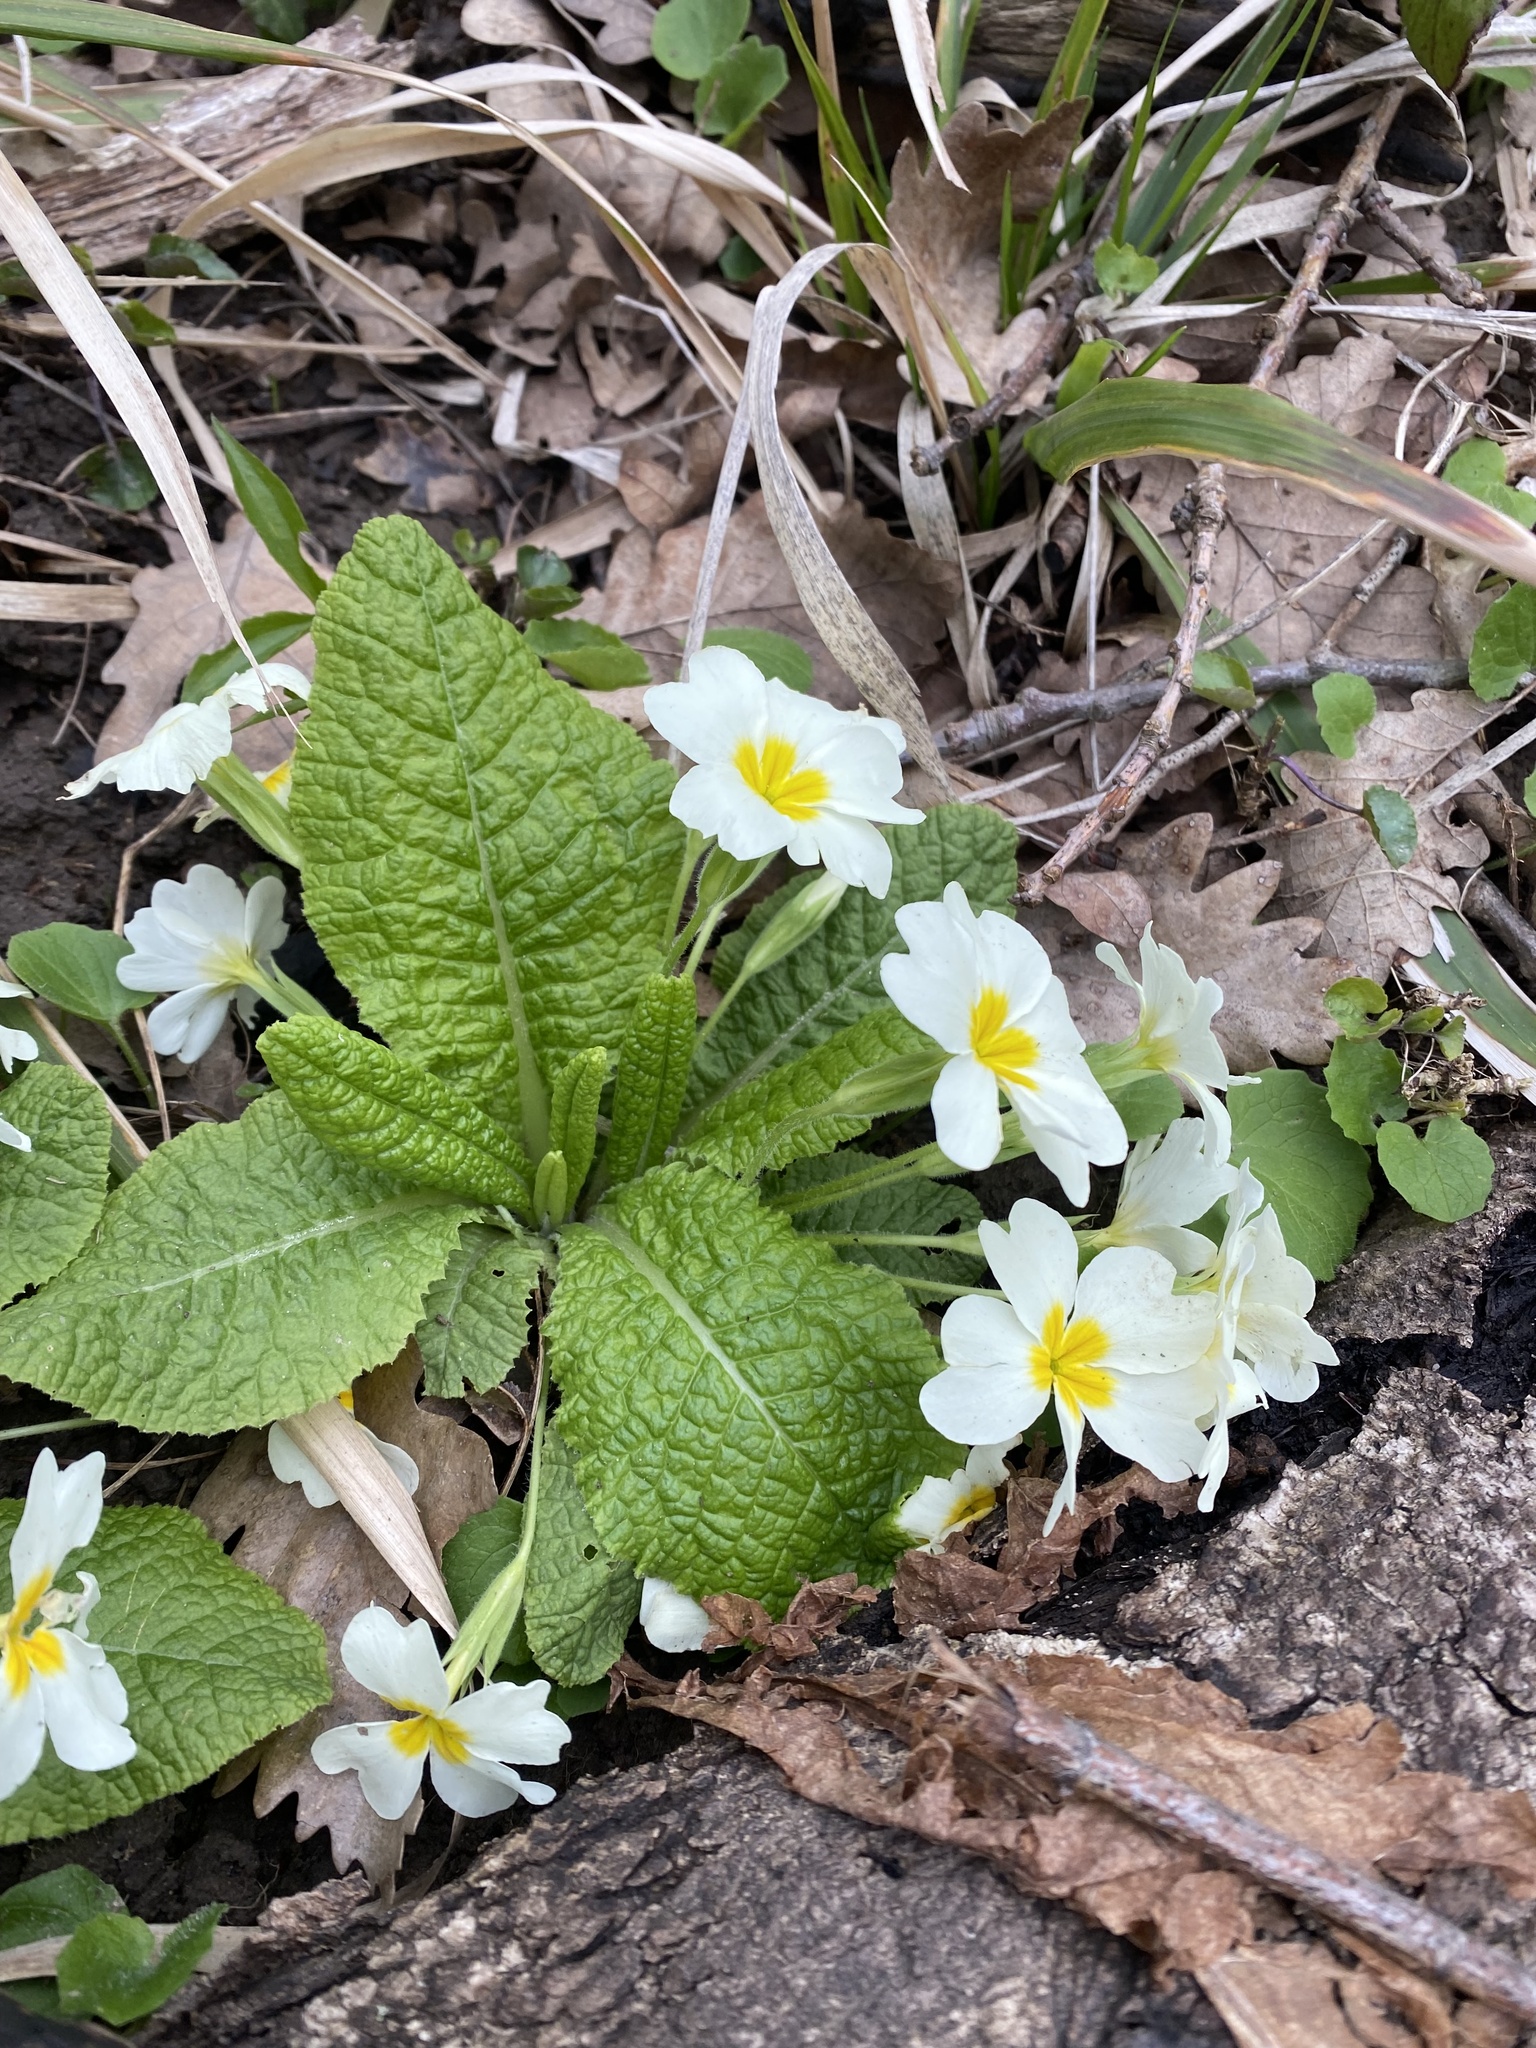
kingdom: Plantae
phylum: Tracheophyta
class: Magnoliopsida
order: Ericales
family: Primulaceae
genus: Primula
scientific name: Primula vulgaris
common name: Primrose
